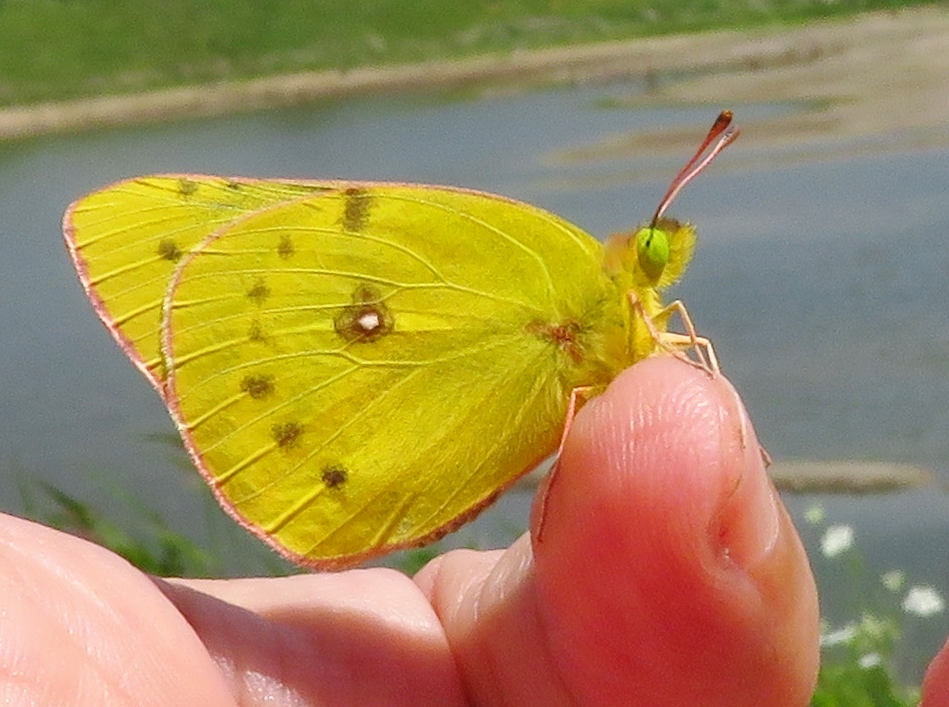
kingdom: Animalia
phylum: Arthropoda
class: Insecta
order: Lepidoptera
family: Pieridae
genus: Colias
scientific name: Colias eurytheme
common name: Alfalfa butterfly
